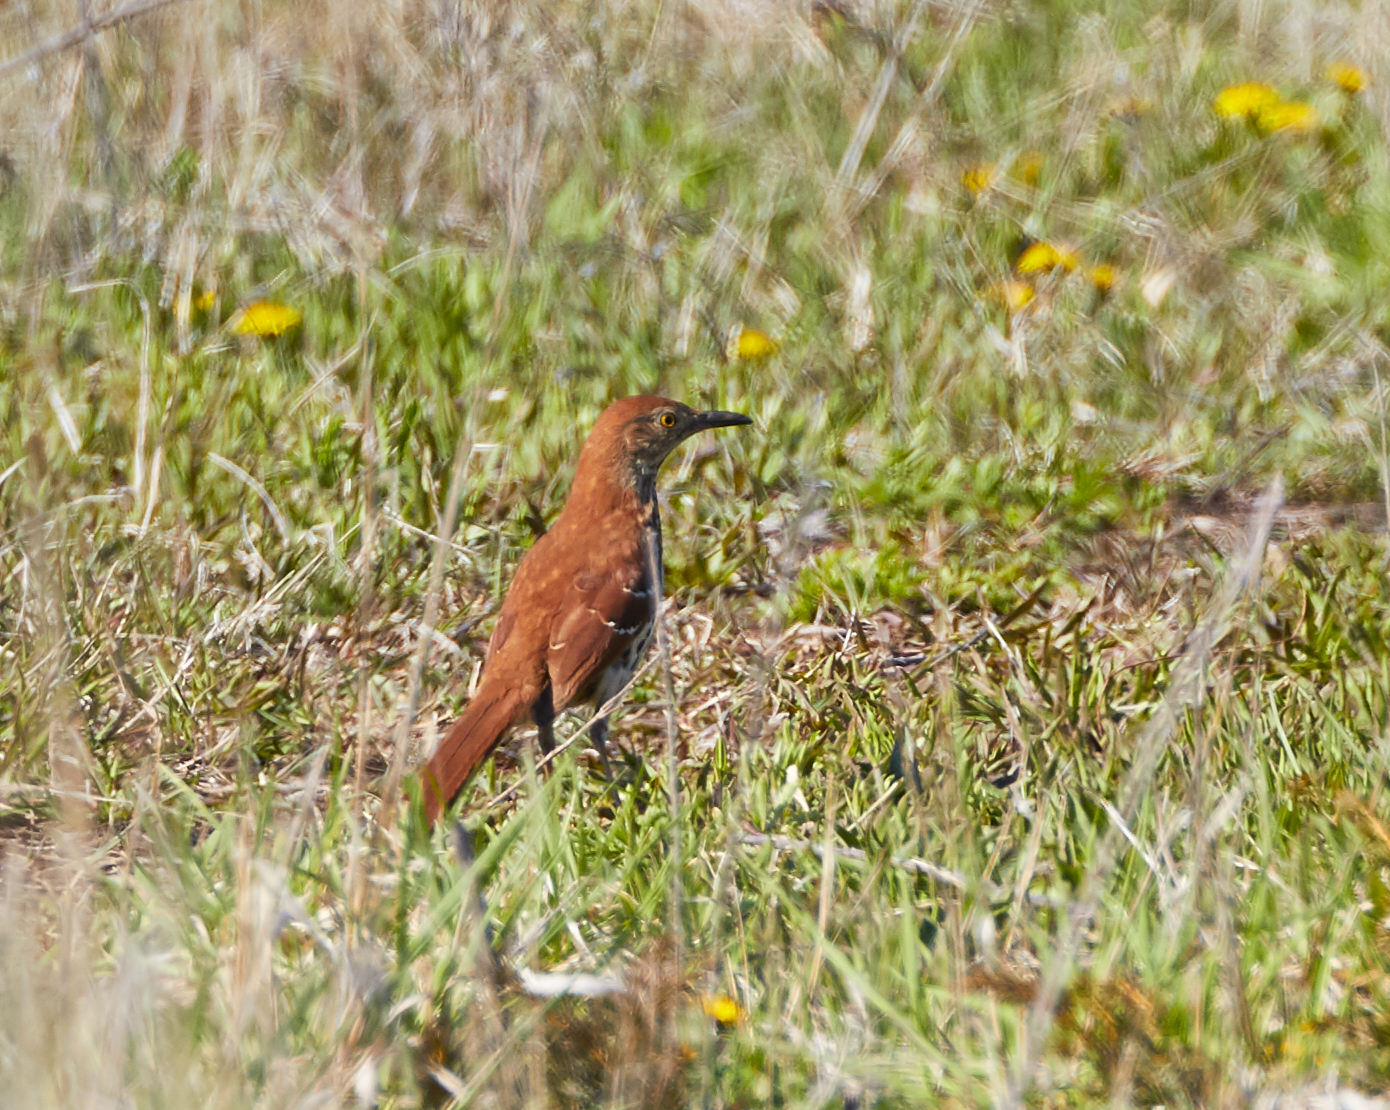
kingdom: Animalia
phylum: Chordata
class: Aves
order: Passeriformes
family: Mimidae
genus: Toxostoma
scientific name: Toxostoma rufum
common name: Brown thrasher
